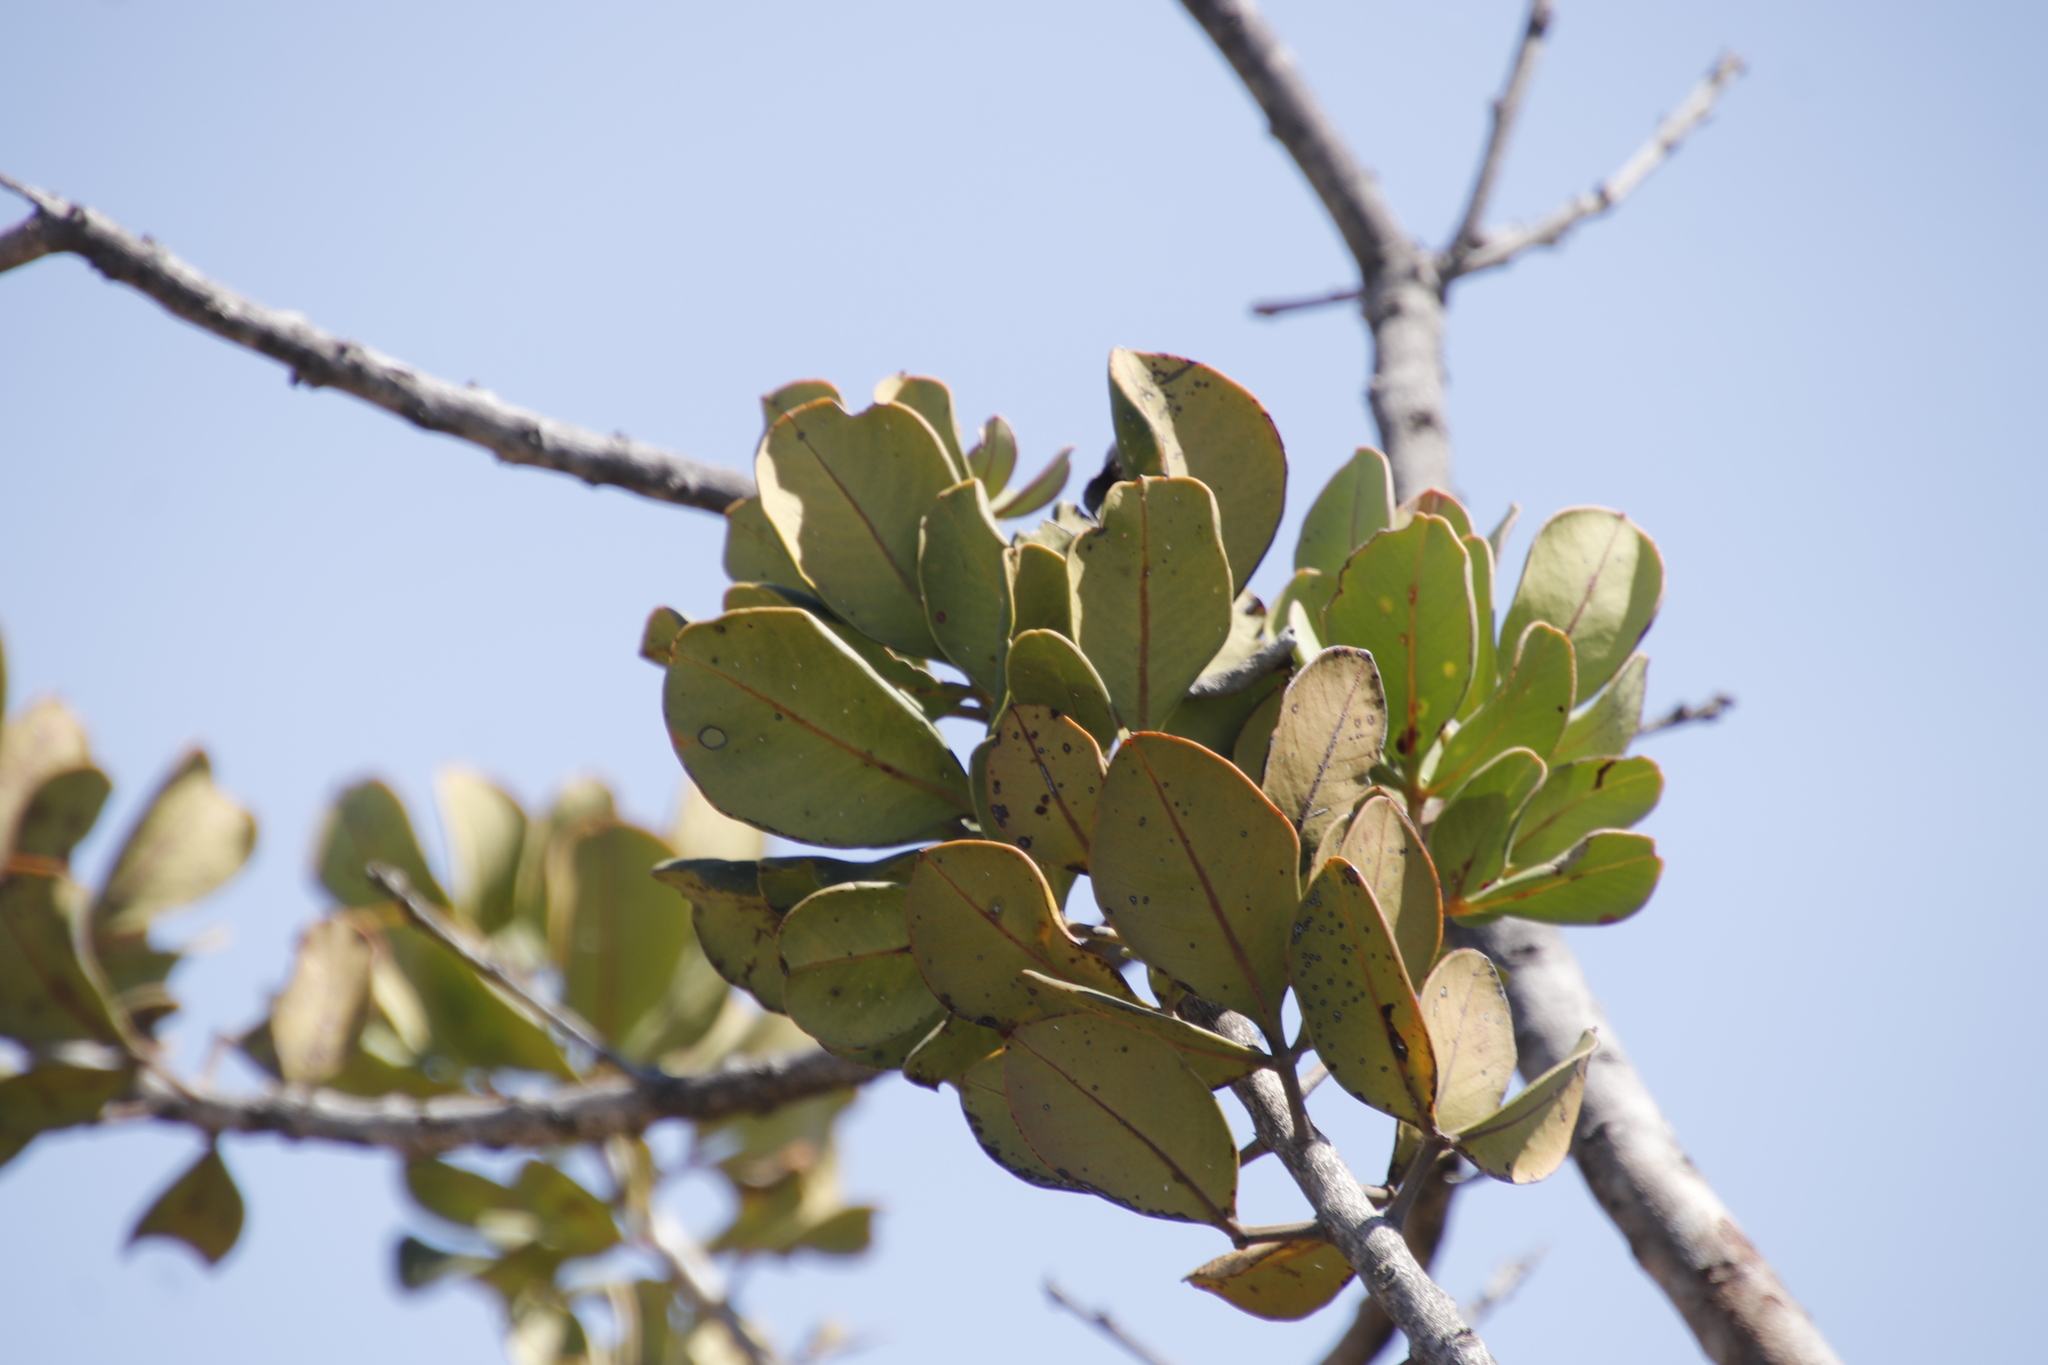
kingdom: Plantae
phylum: Tracheophyta
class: Magnoliopsida
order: Sapindales
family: Anacardiaceae
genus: Searsia
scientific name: Searsia scytophylla
